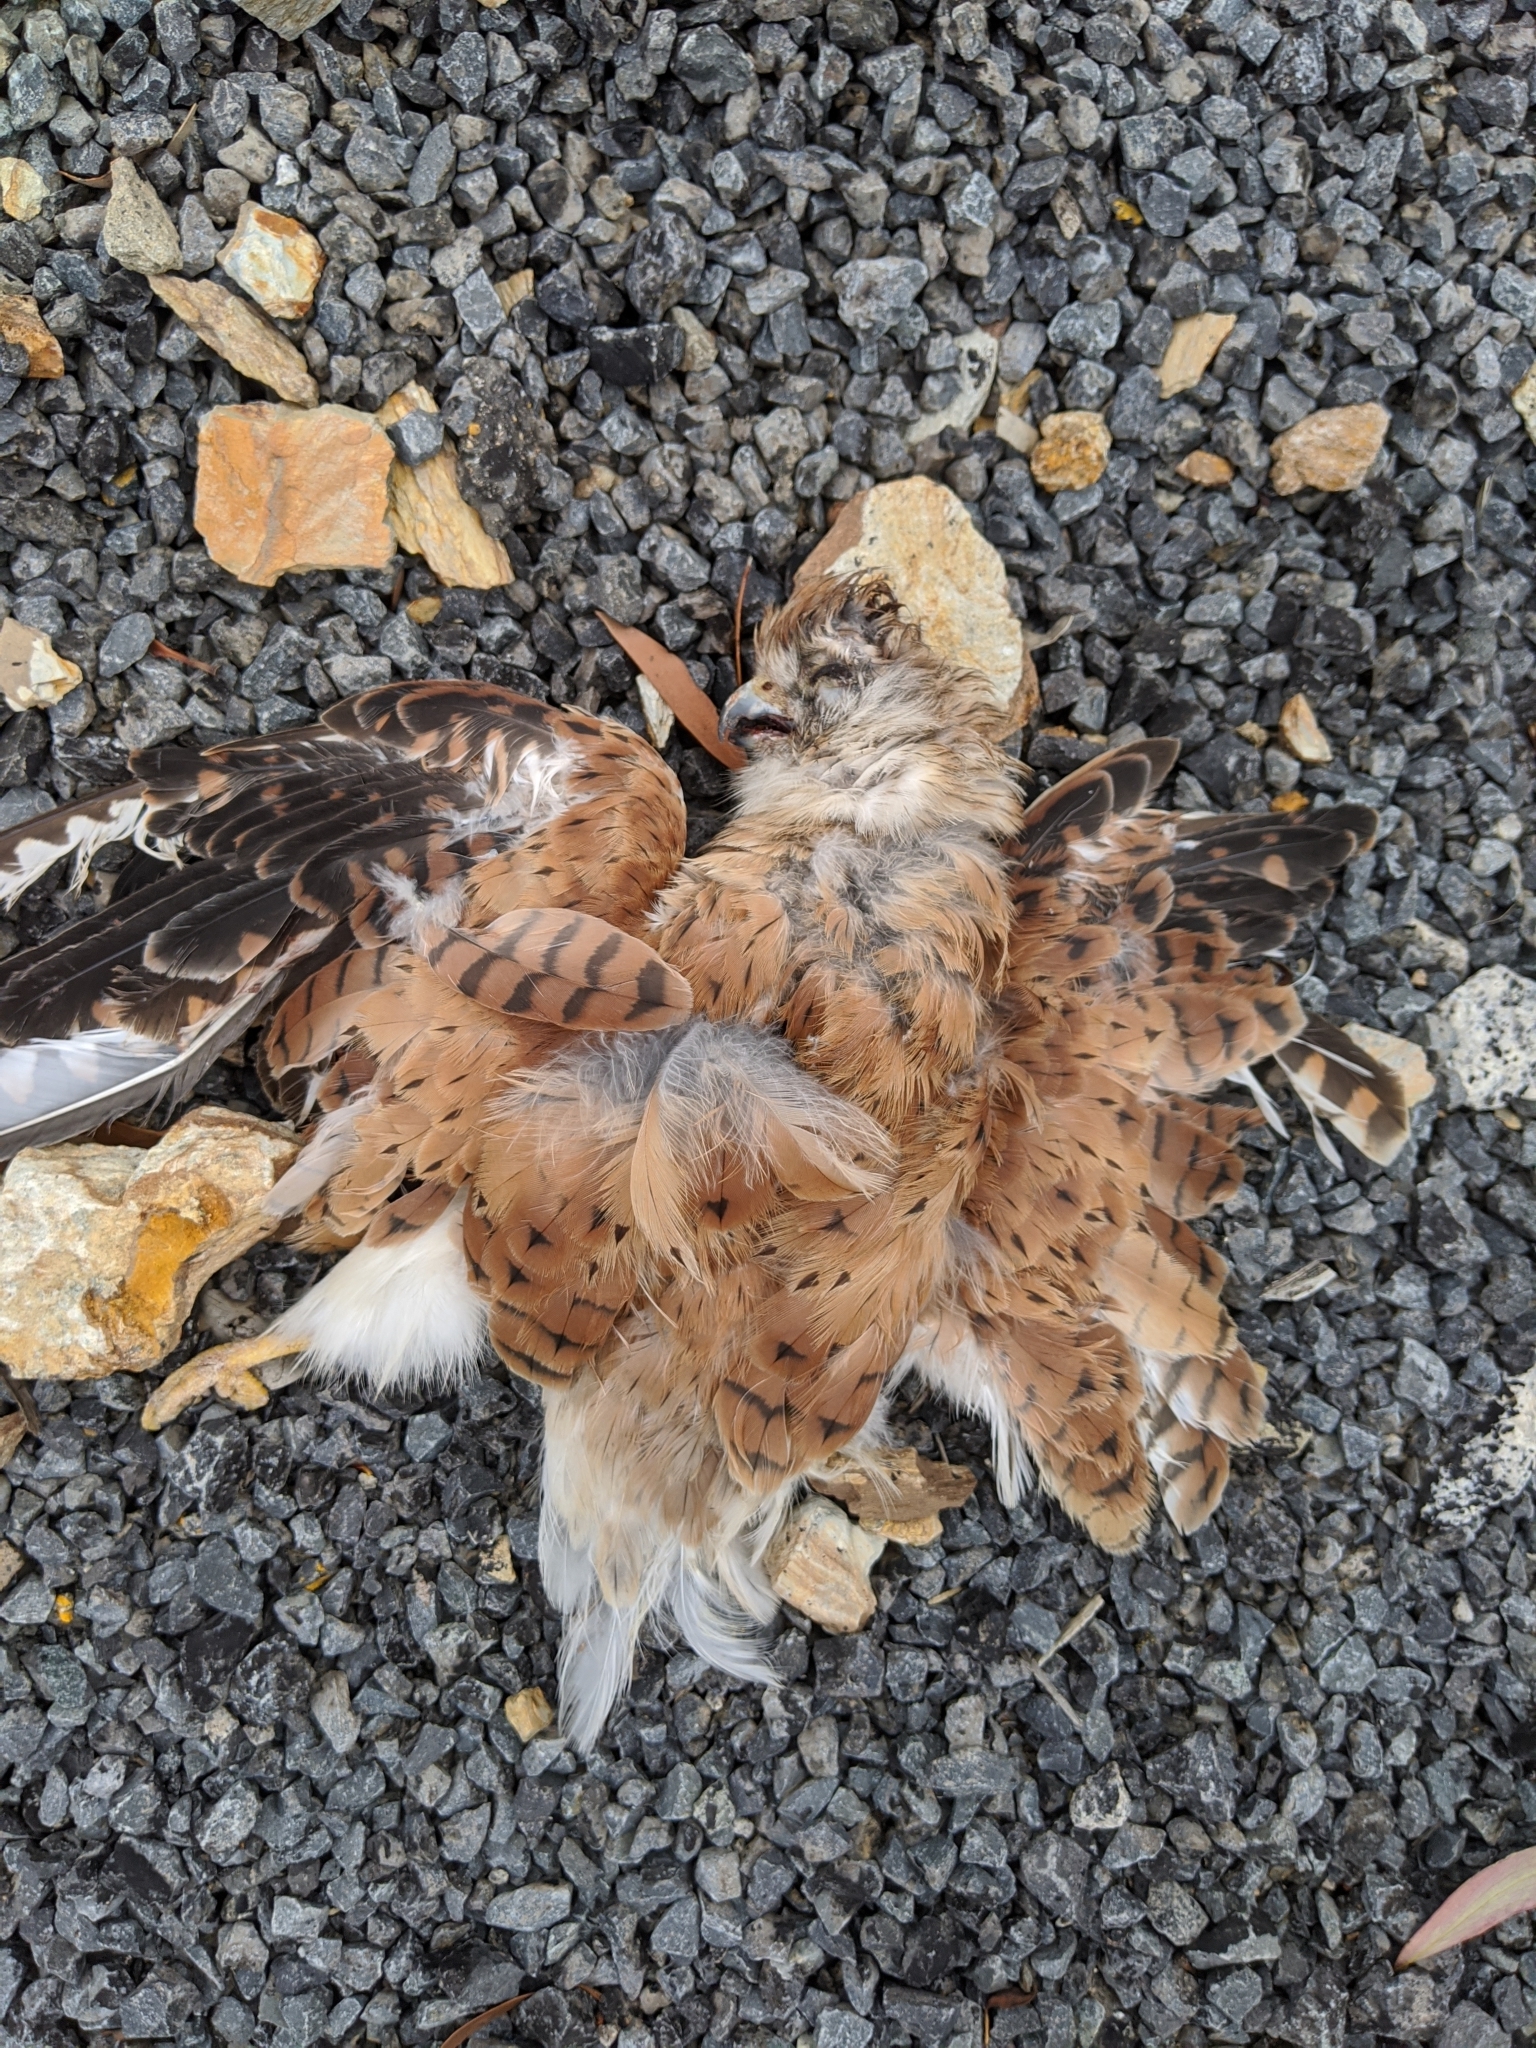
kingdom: Animalia
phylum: Chordata
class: Aves
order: Falconiformes
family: Falconidae
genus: Falco
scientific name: Falco cenchroides
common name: Nankeen kestrel
